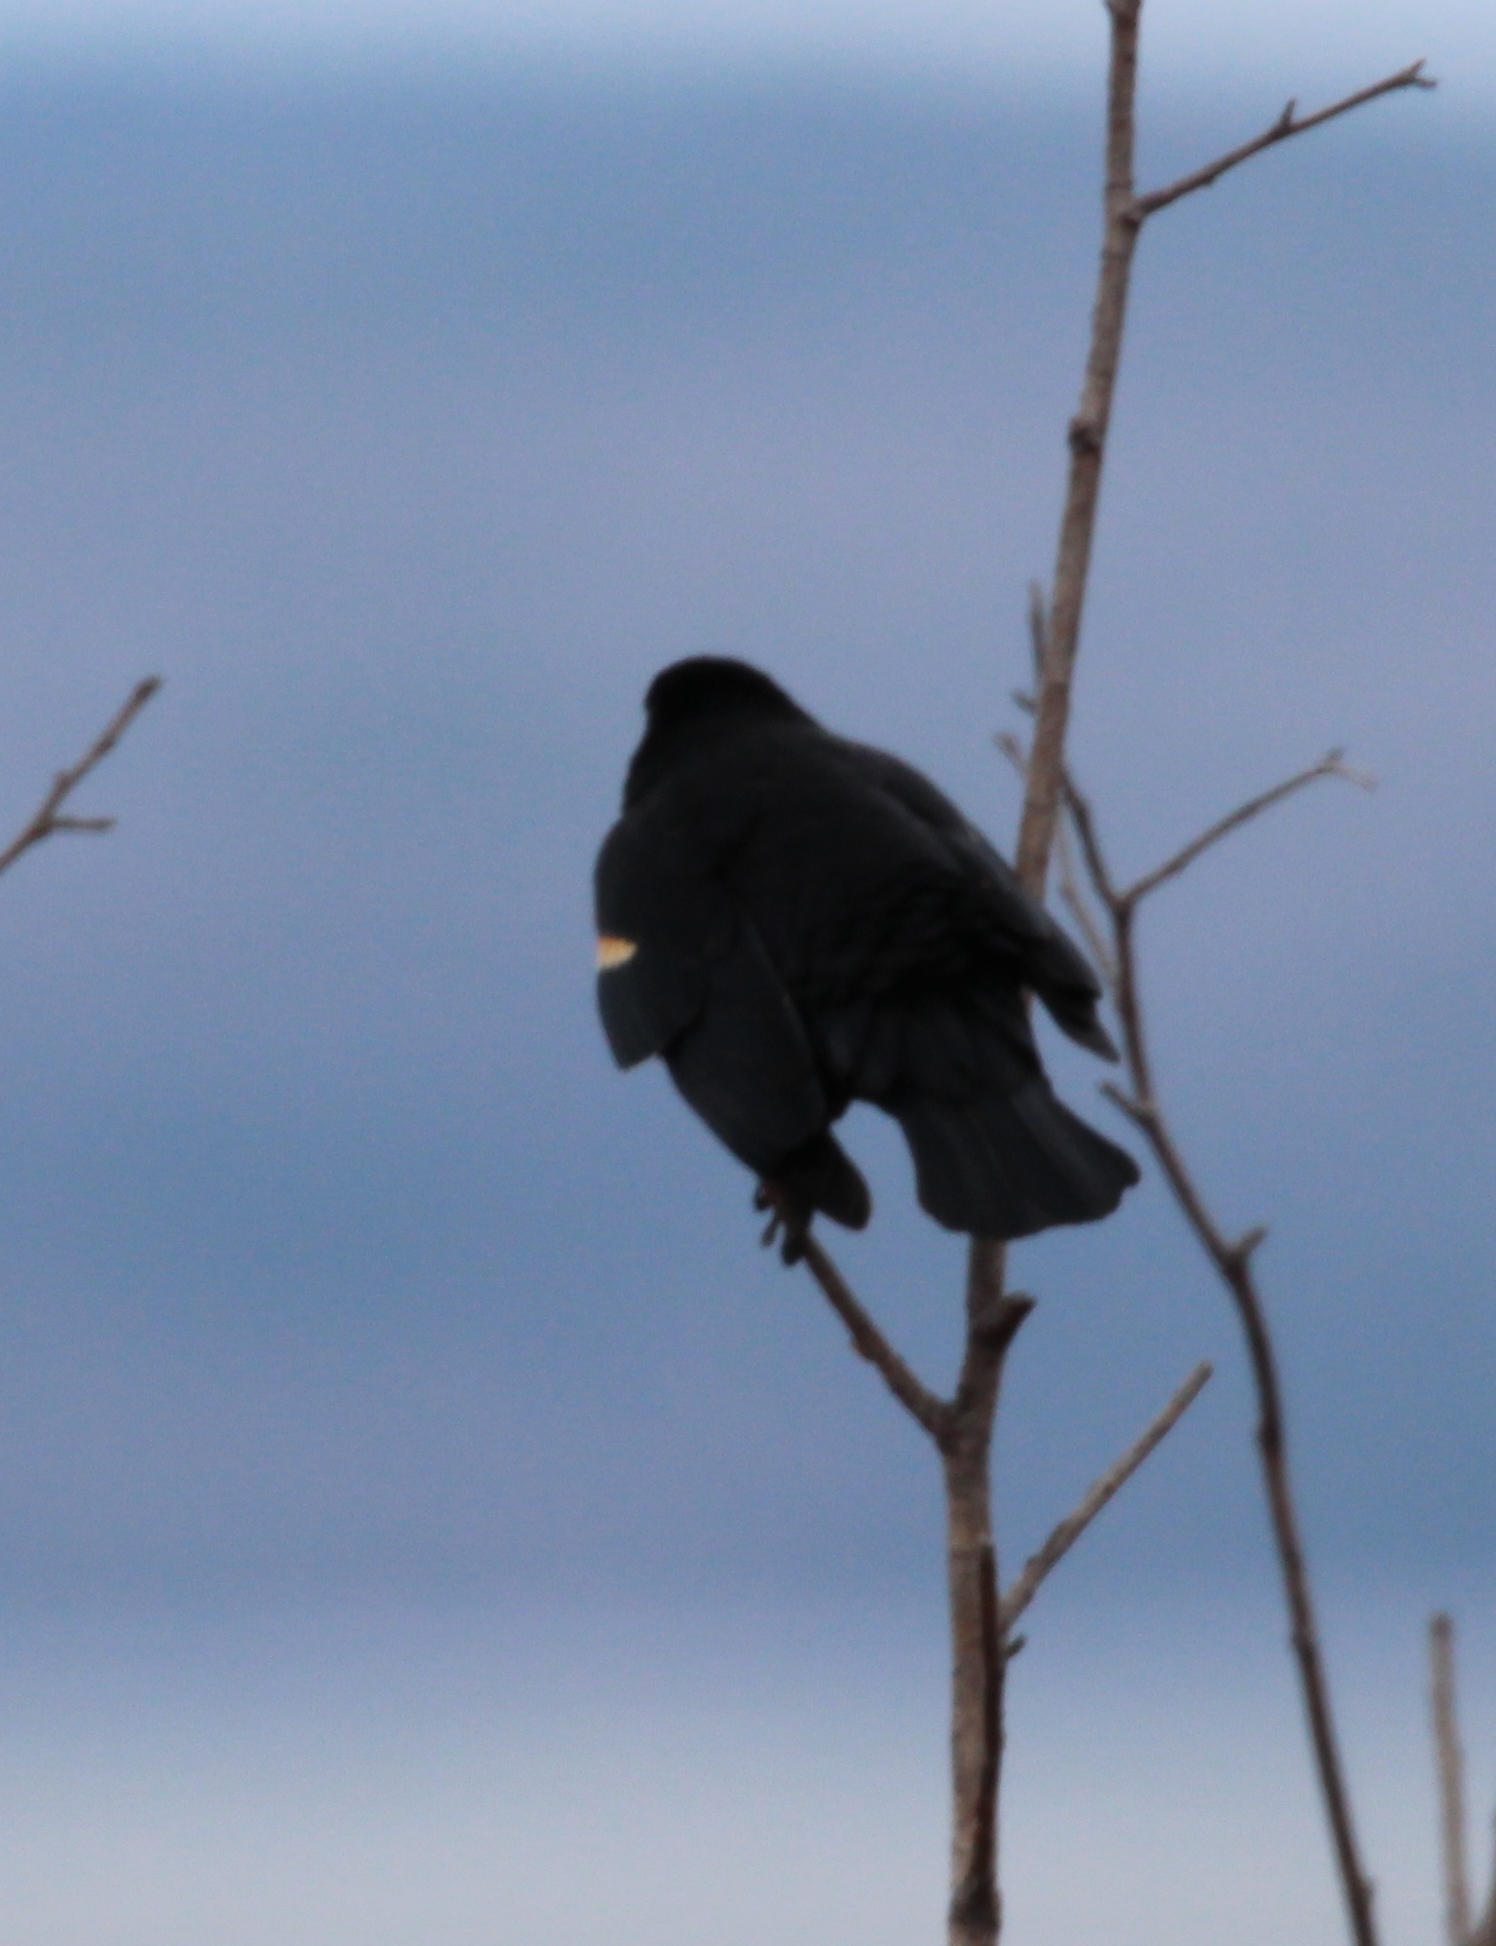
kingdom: Animalia
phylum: Chordata
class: Aves
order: Passeriformes
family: Icteridae
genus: Agelaius
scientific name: Agelaius phoeniceus
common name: Red-winged blackbird
